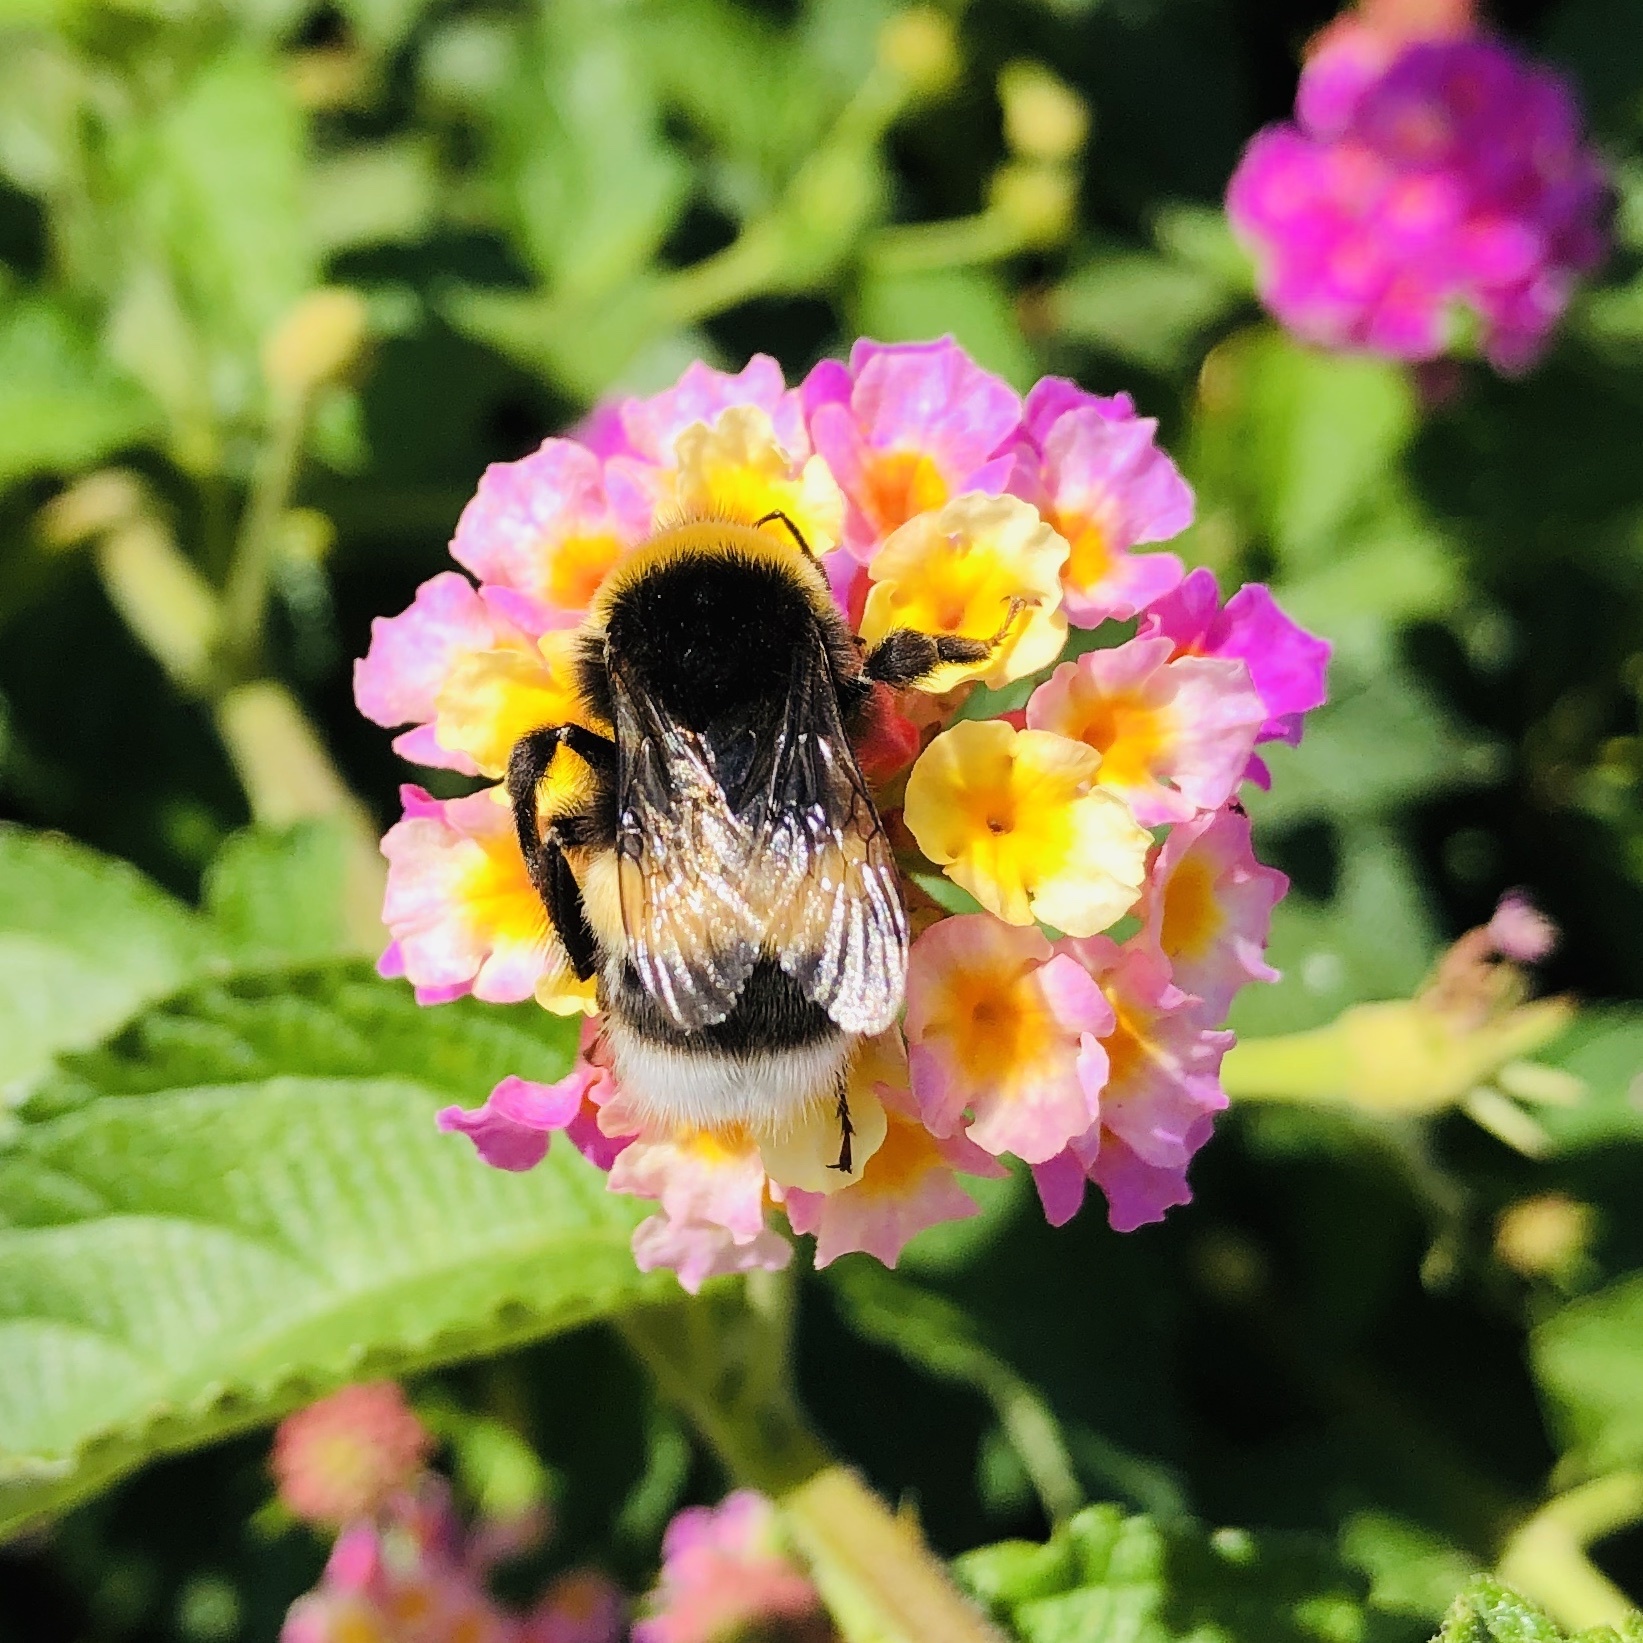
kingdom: Animalia
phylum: Arthropoda
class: Insecta
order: Hymenoptera
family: Apidae
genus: Bombus
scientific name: Bombus terrestris
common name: Buff-tailed bumblebee
